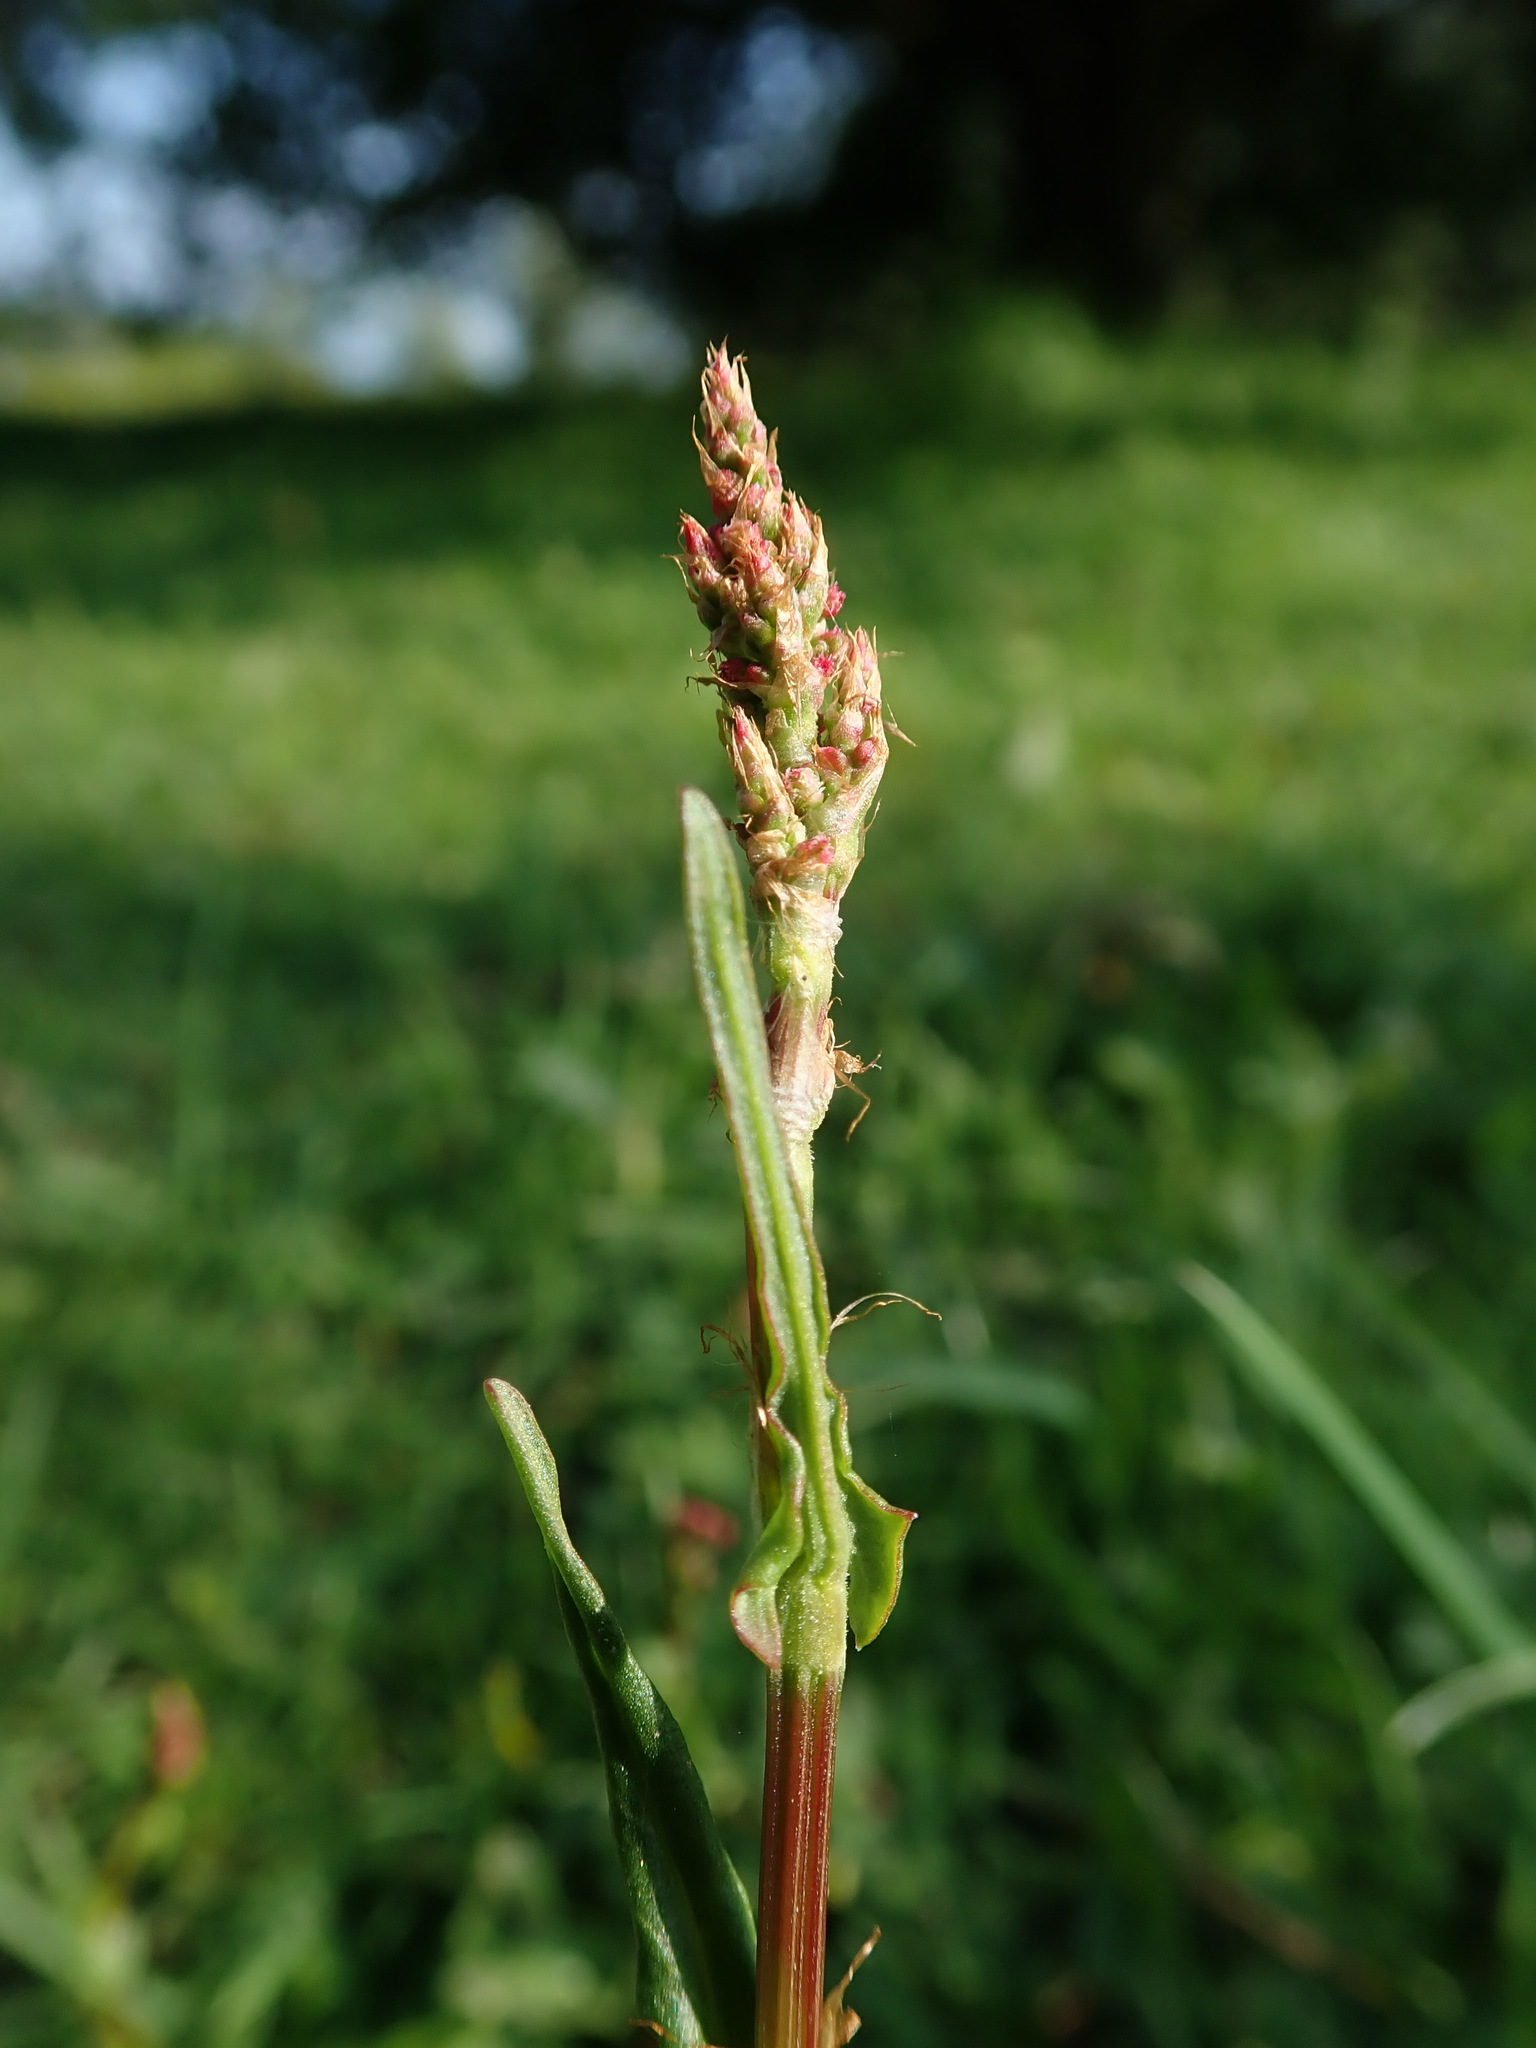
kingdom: Plantae
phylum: Tracheophyta
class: Magnoliopsida
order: Caryophyllales
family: Polygonaceae
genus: Rumex
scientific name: Rumex acetosa
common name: Garden sorrel
